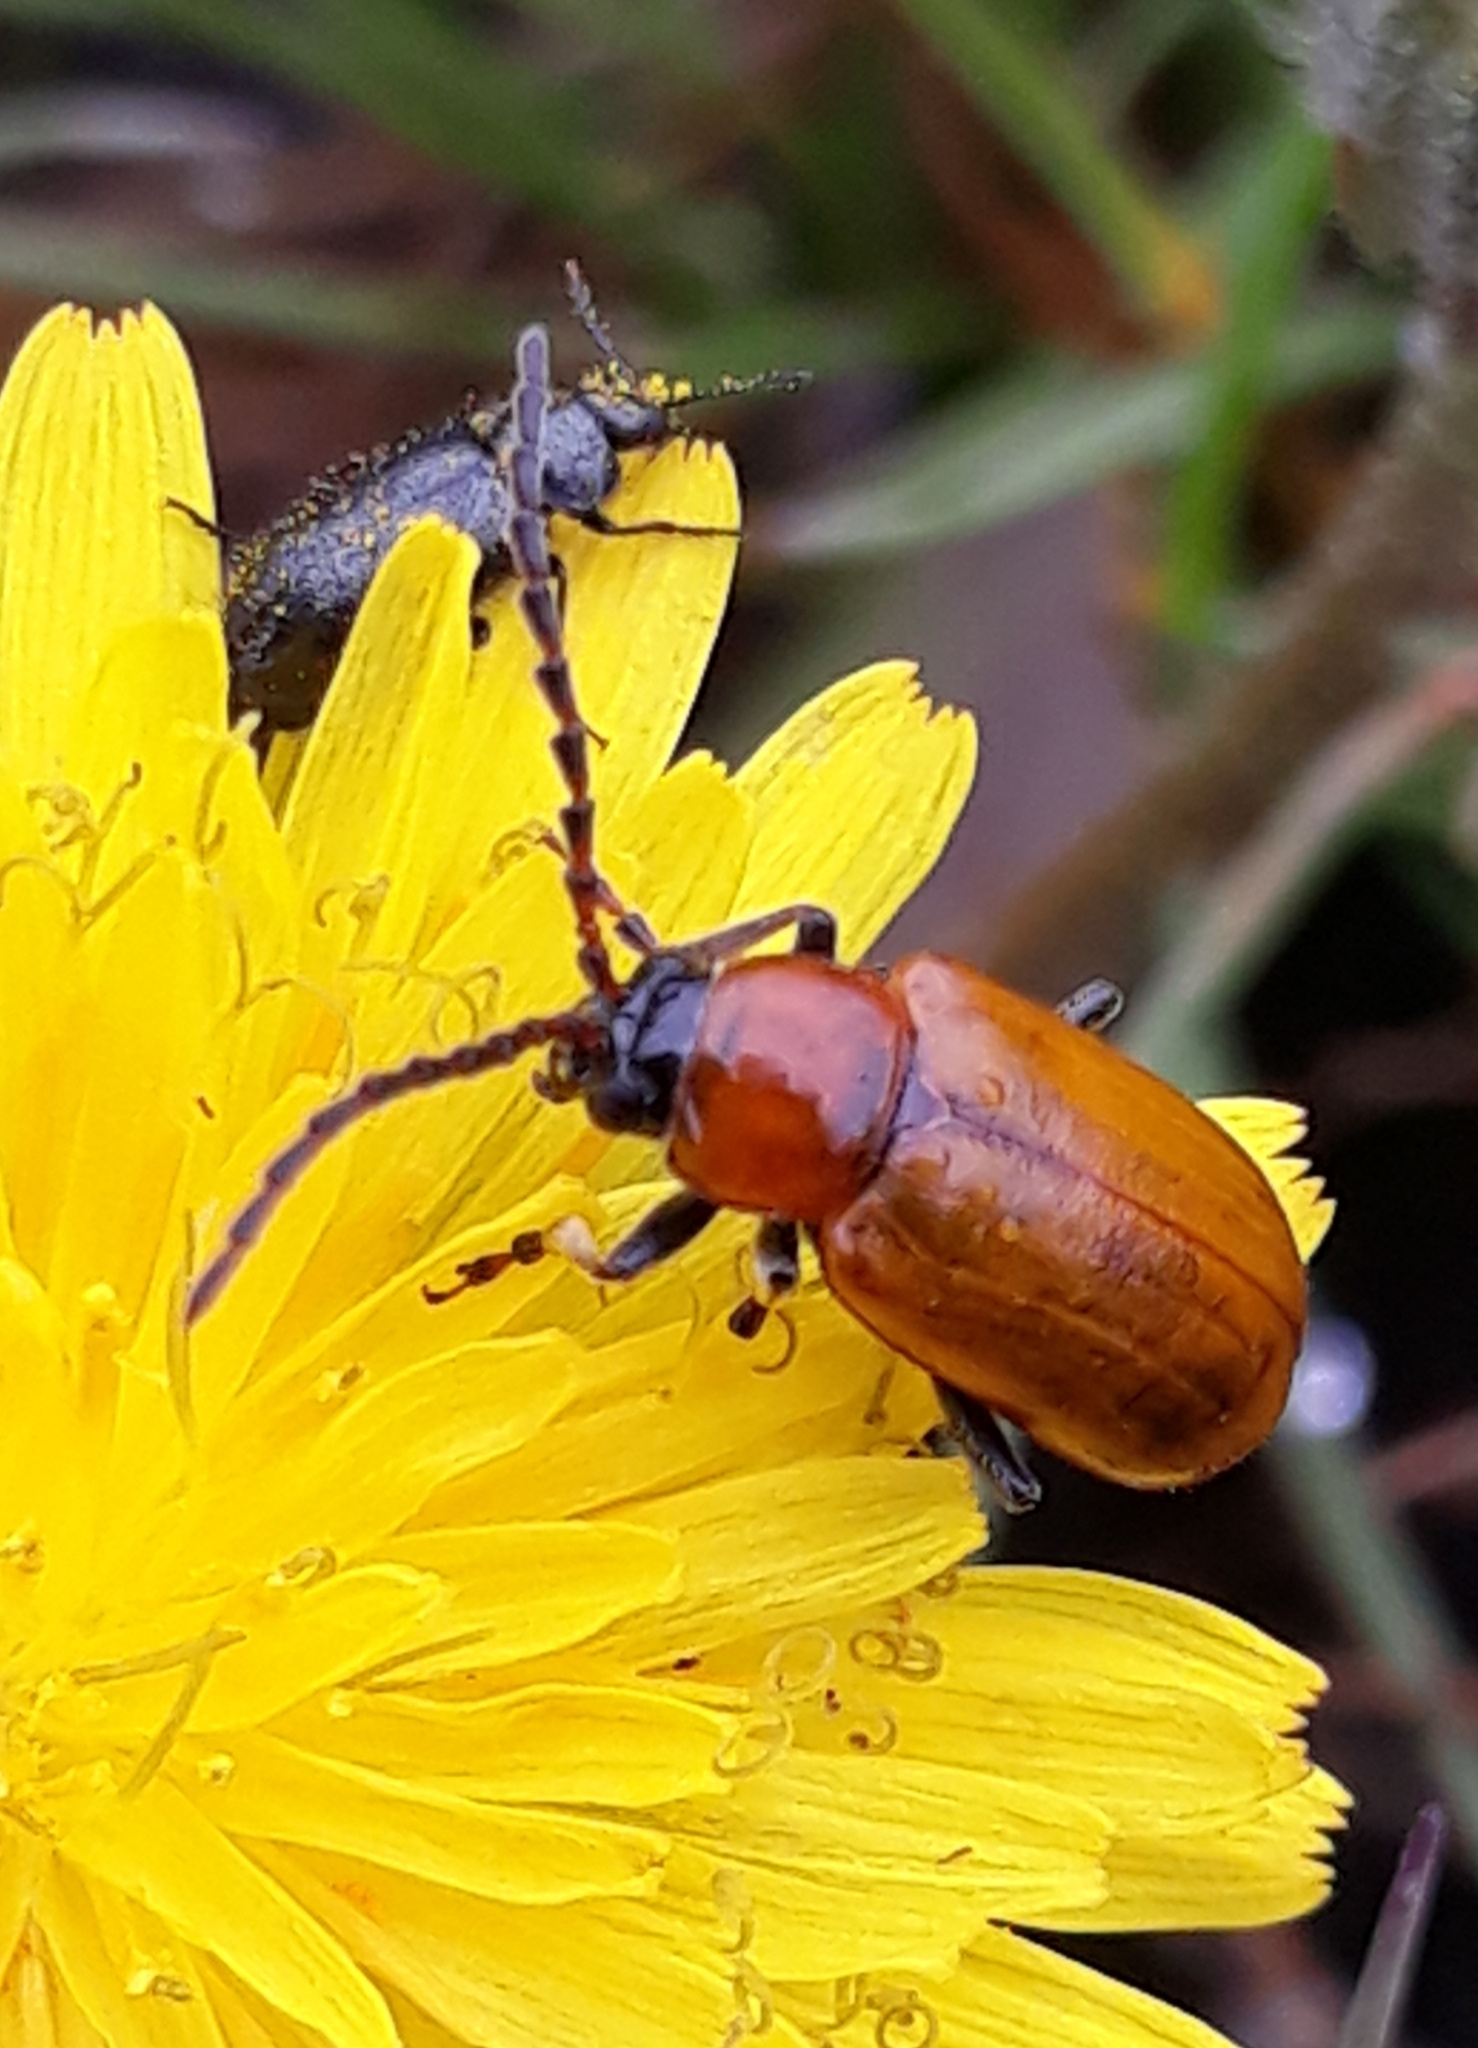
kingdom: Animalia
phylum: Arthropoda
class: Insecta
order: Coleoptera
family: Chrysomelidae
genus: Exosoma
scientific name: Exosoma lusitanicum
